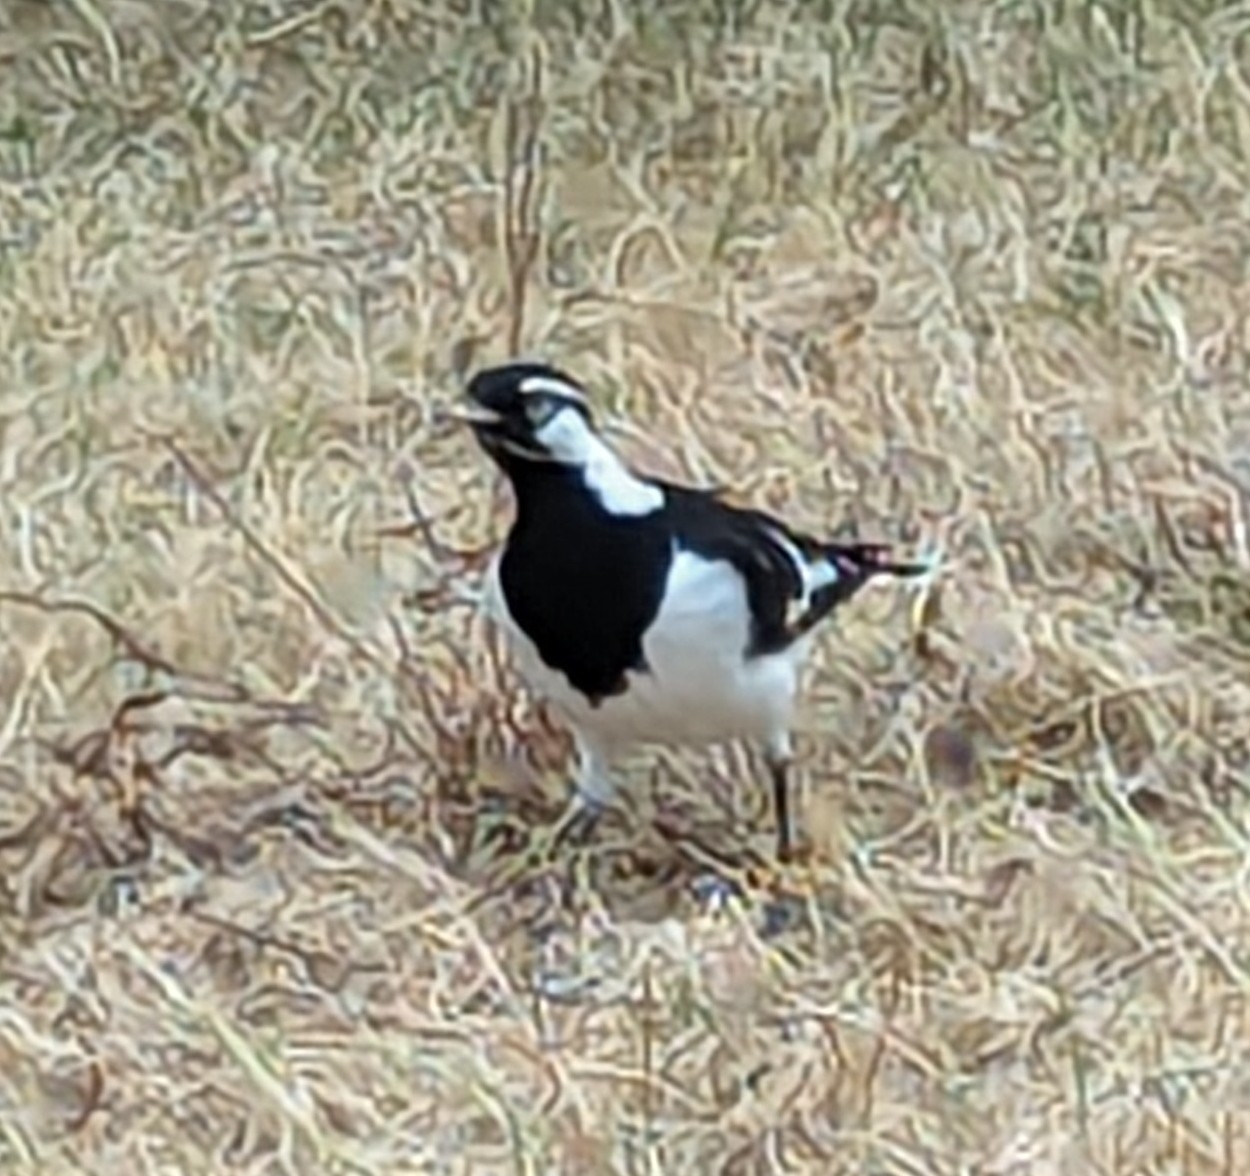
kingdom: Animalia
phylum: Chordata
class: Aves
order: Passeriformes
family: Monarchidae
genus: Grallina
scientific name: Grallina cyanoleuca
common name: Magpie-lark
